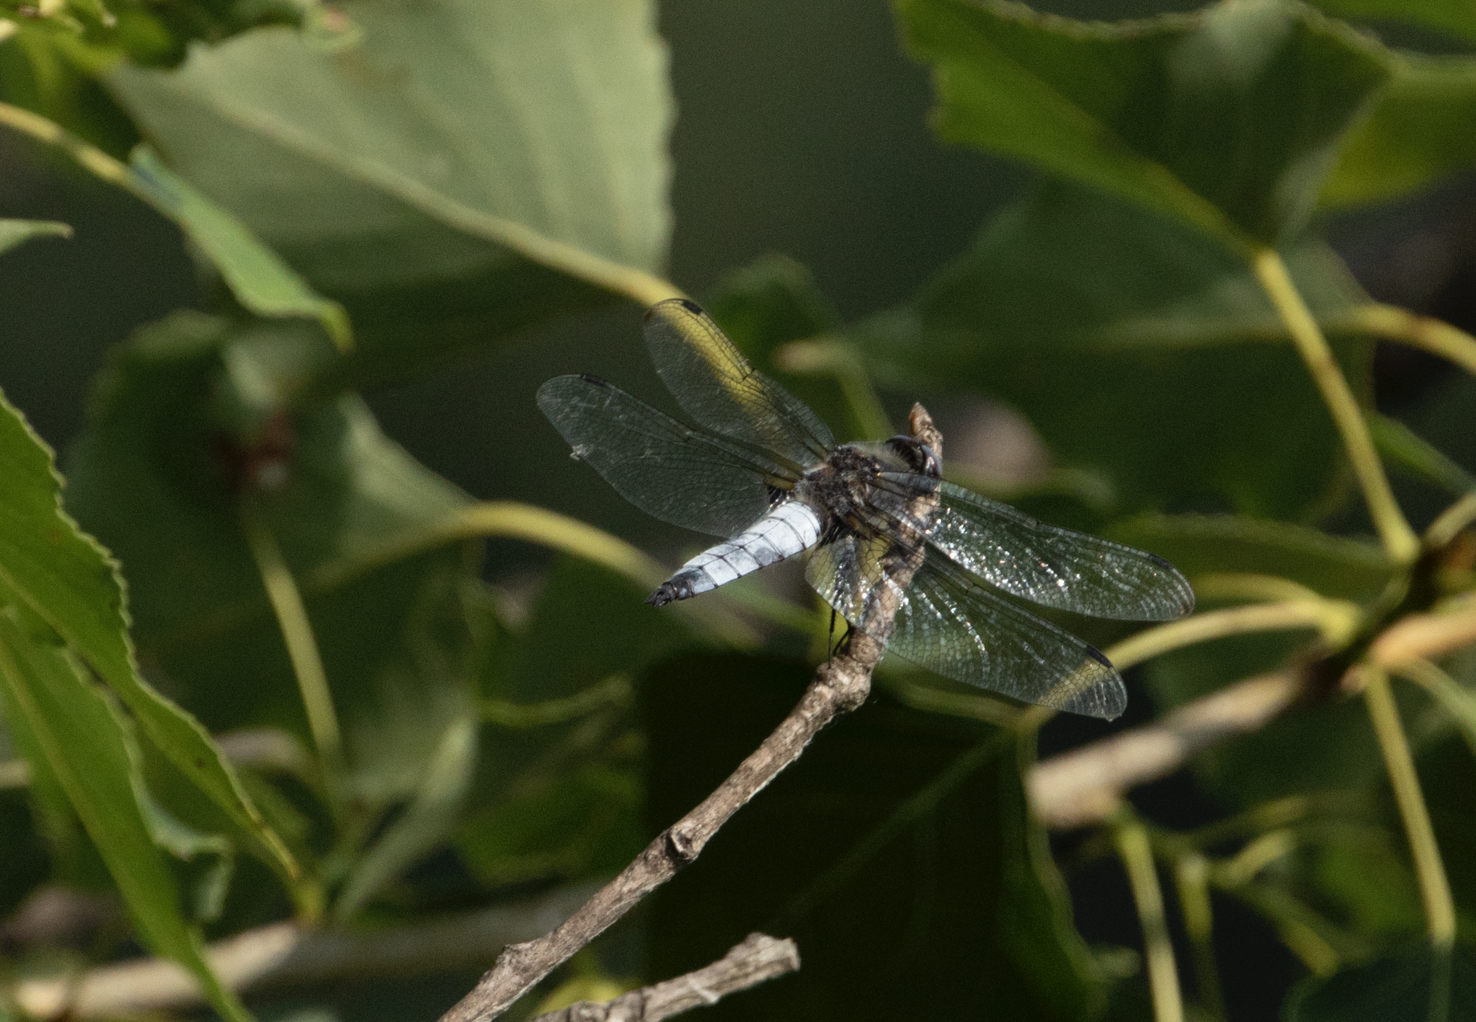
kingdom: Animalia
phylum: Arthropoda
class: Insecta
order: Odonata
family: Libellulidae
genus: Libellula
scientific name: Libellula fulva
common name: Blue chaser
